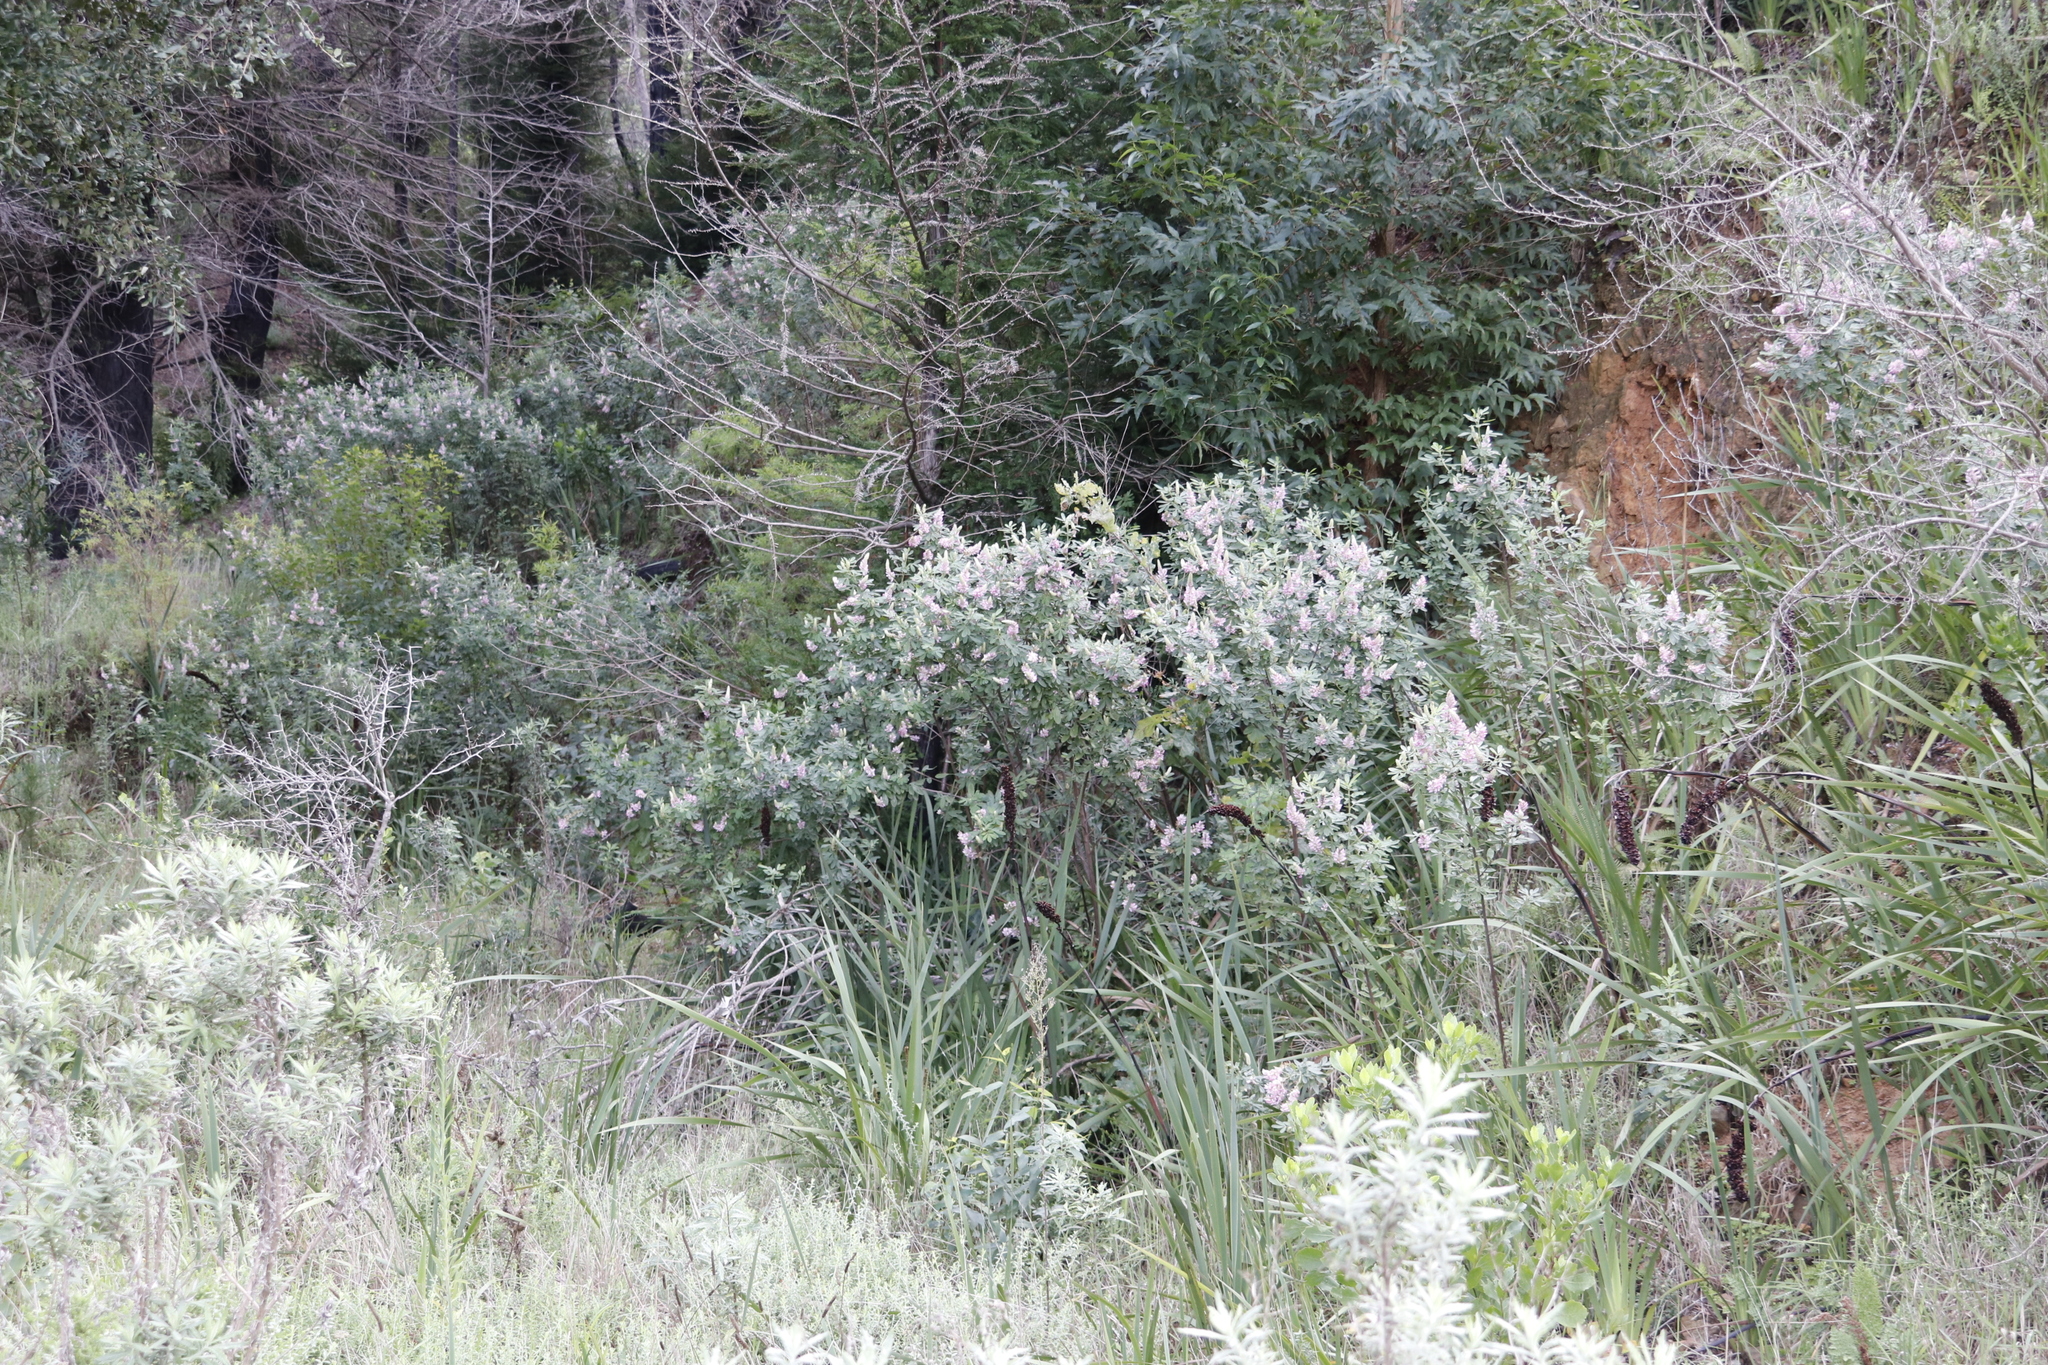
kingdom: Plantae
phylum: Tracheophyta
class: Magnoliopsida
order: Fabales
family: Fabaceae
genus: Indigofera
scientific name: Indigofera cytisoides
